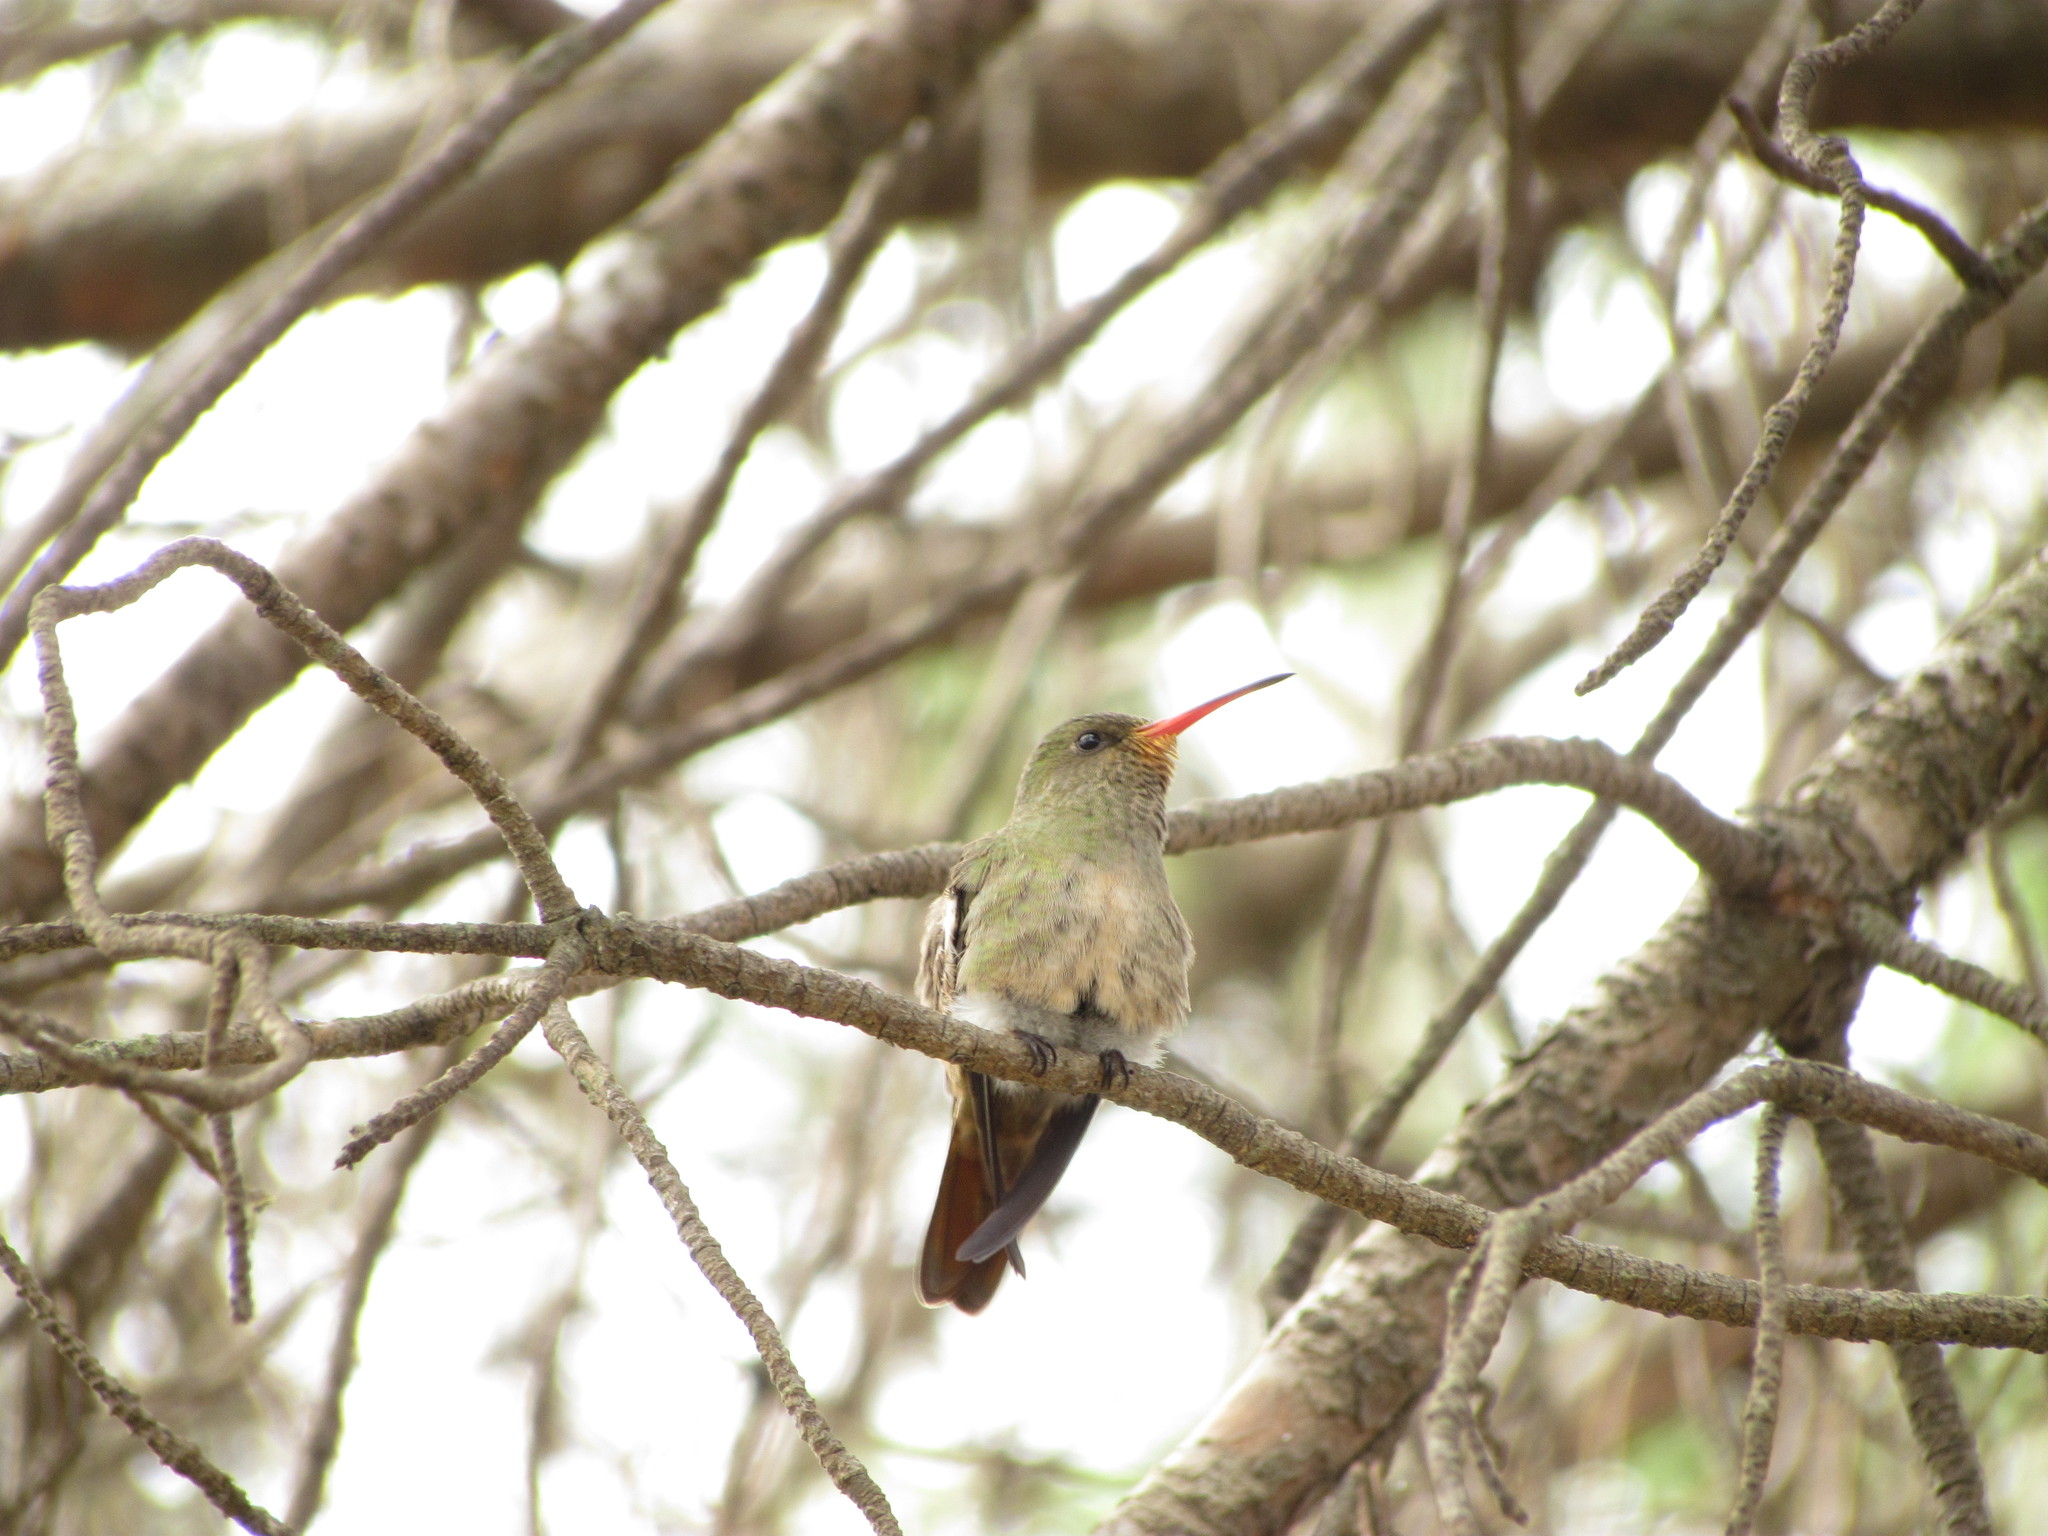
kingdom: Animalia
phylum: Chordata
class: Aves
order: Apodiformes
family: Trochilidae
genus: Hylocharis
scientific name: Hylocharis chrysura
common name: Gilded sapphire
